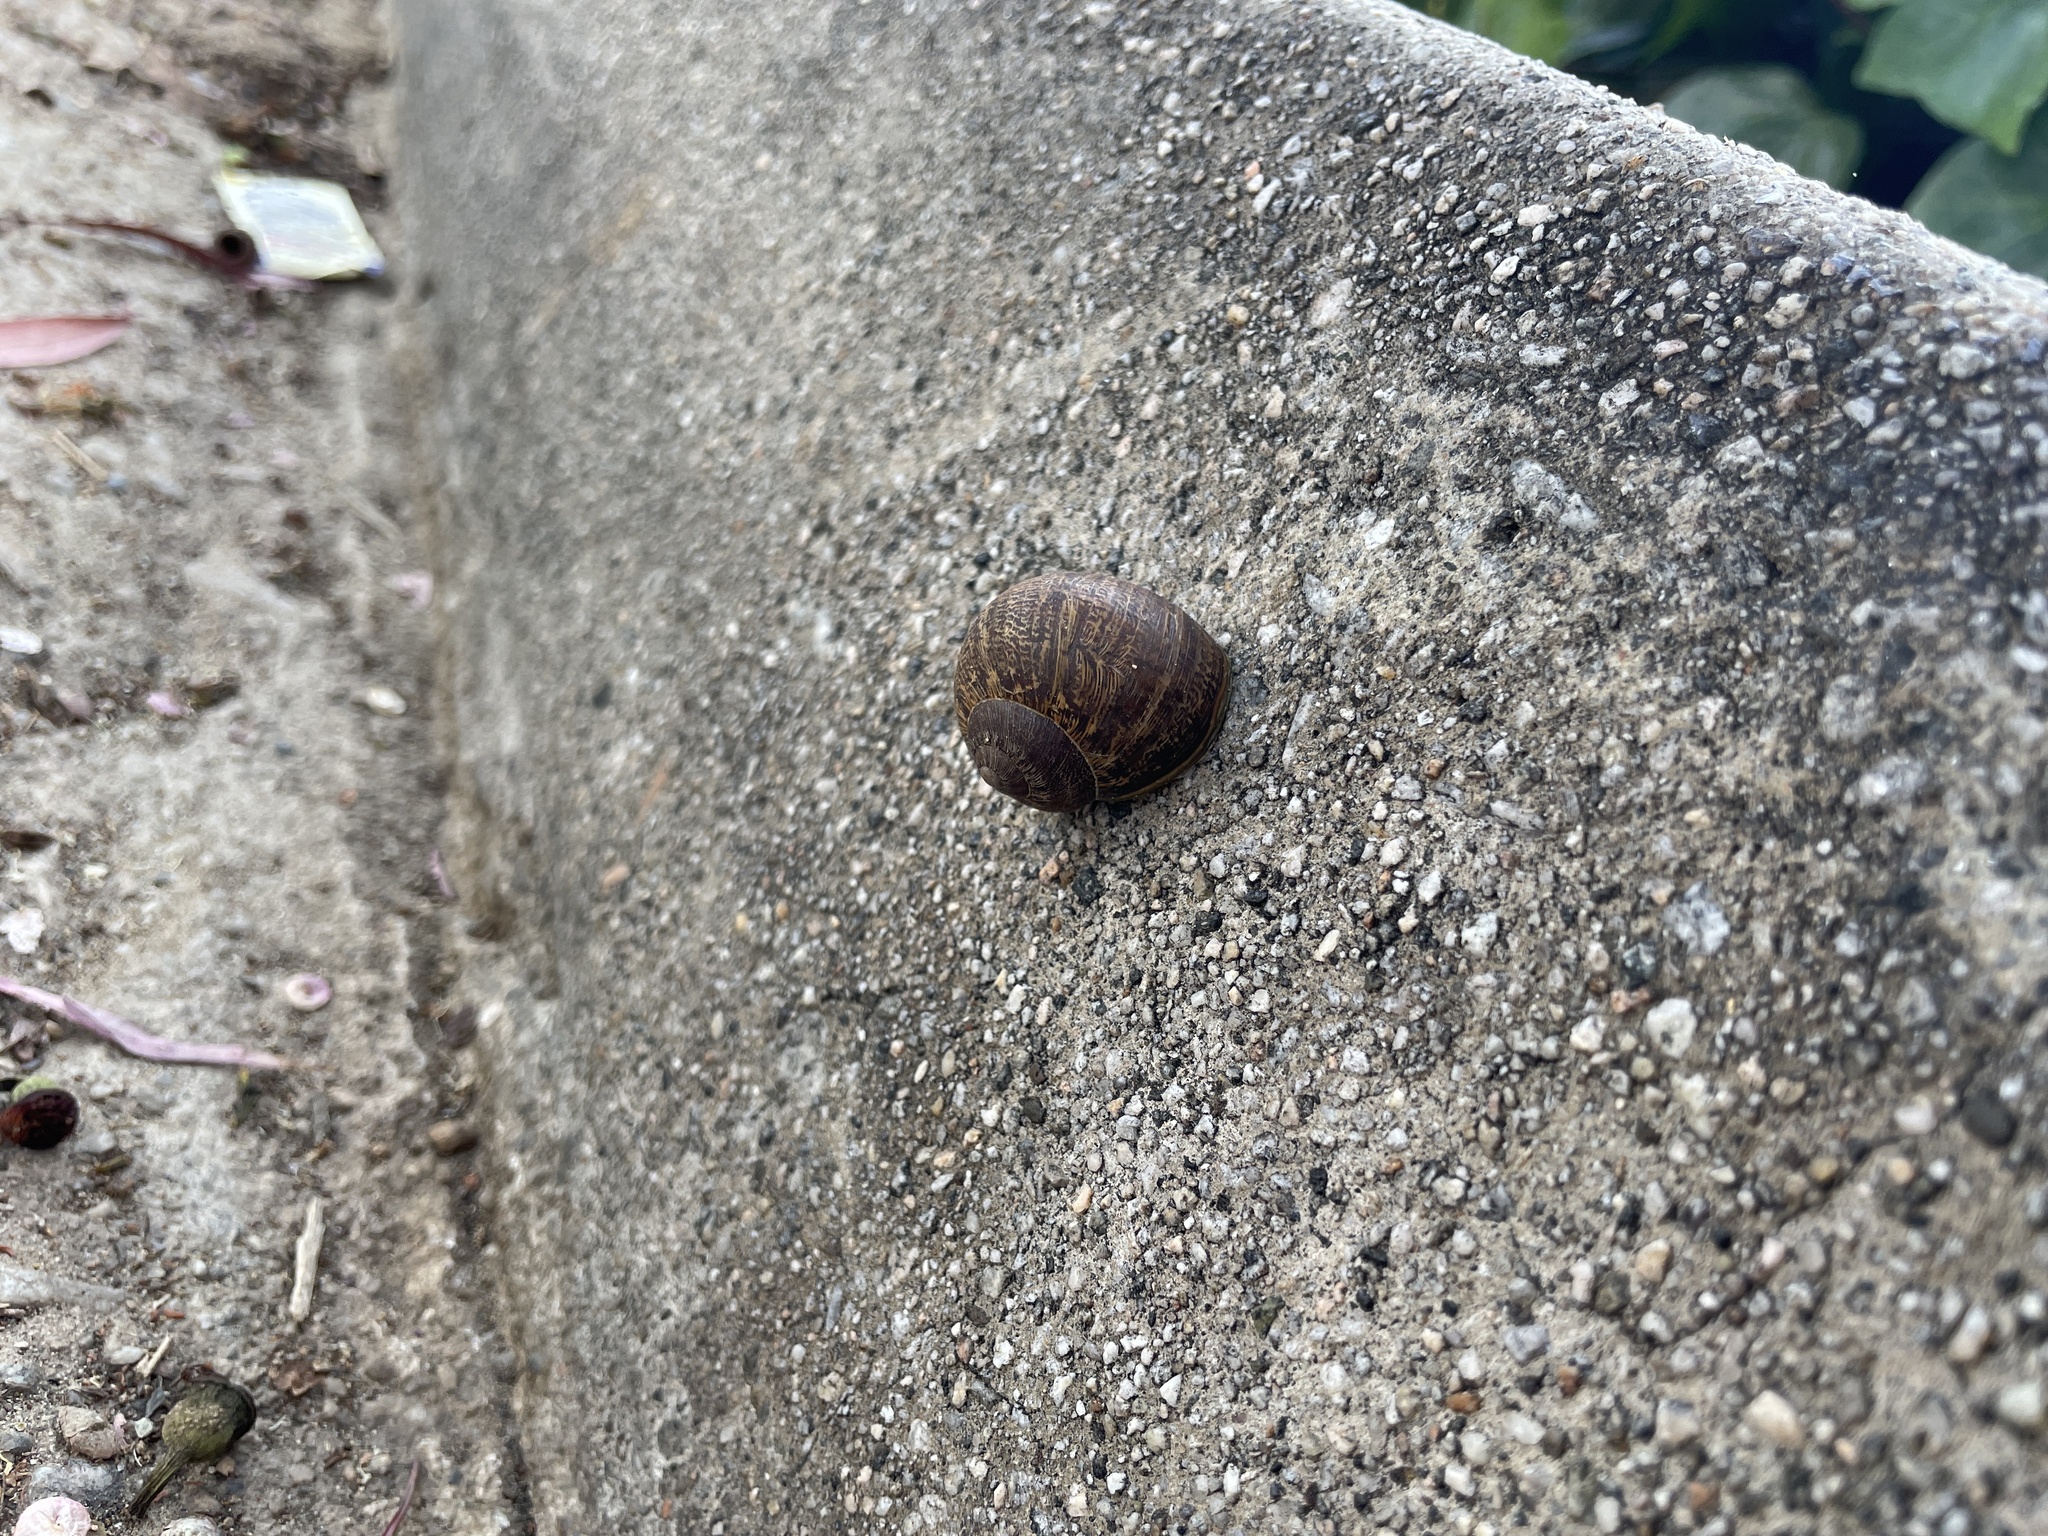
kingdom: Animalia
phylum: Mollusca
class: Gastropoda
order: Stylommatophora
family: Helicidae
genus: Cornu
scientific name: Cornu aspersum
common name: Brown garden snail
